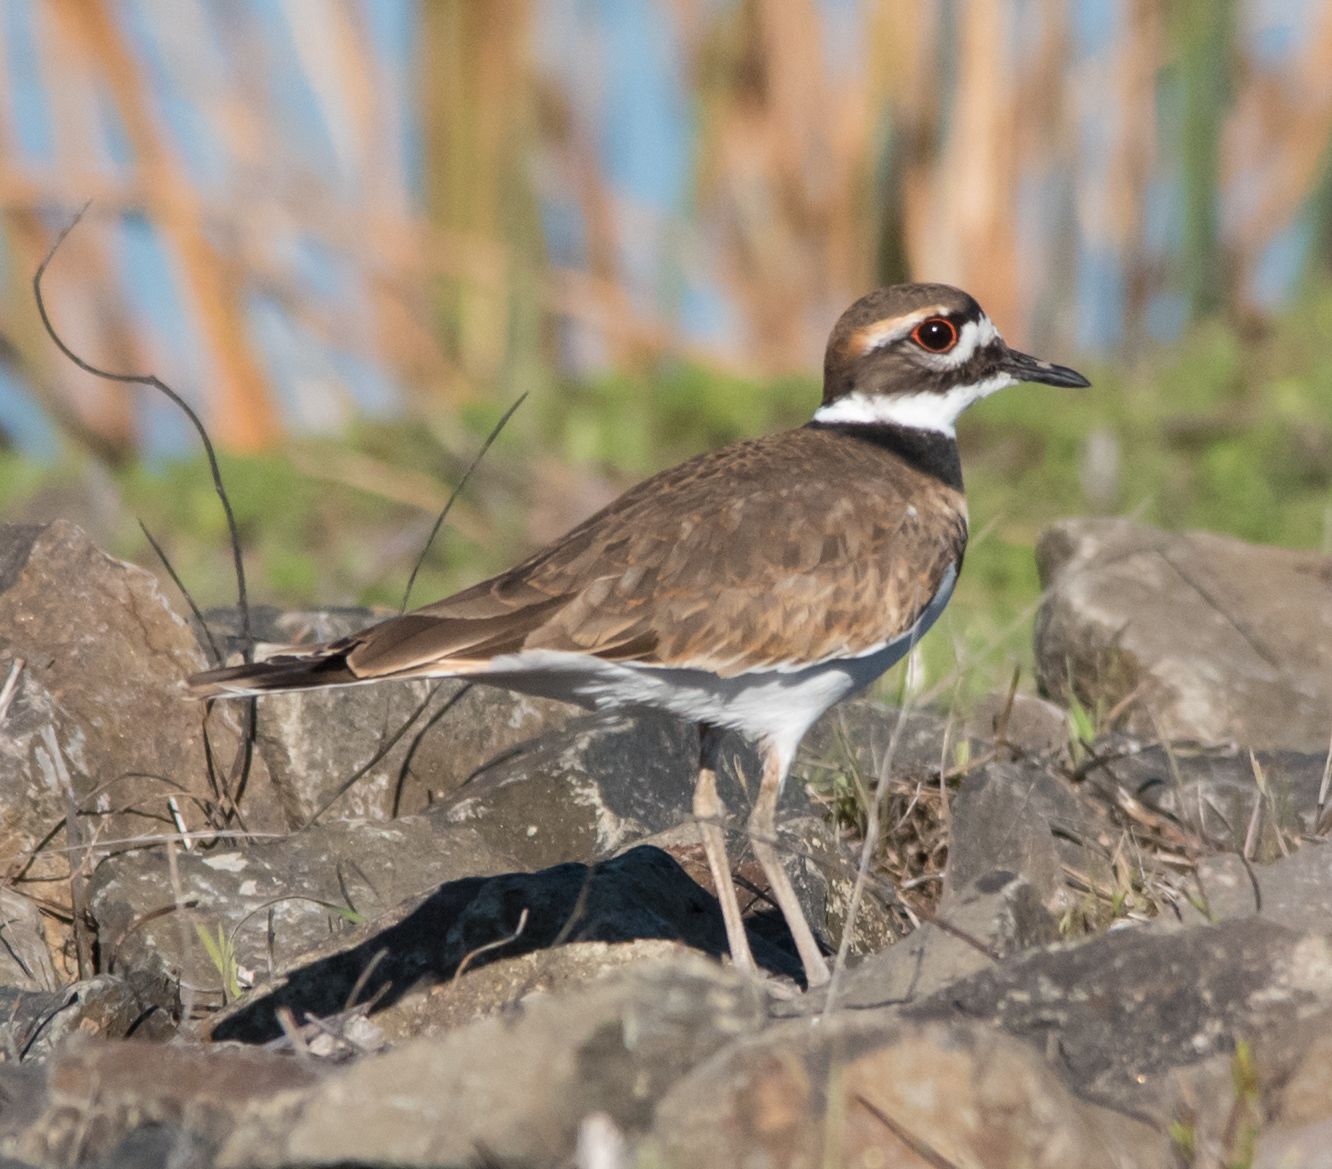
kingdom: Animalia
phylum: Chordata
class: Aves
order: Charadriiformes
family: Charadriidae
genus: Charadrius
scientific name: Charadrius vociferus
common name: Killdeer
